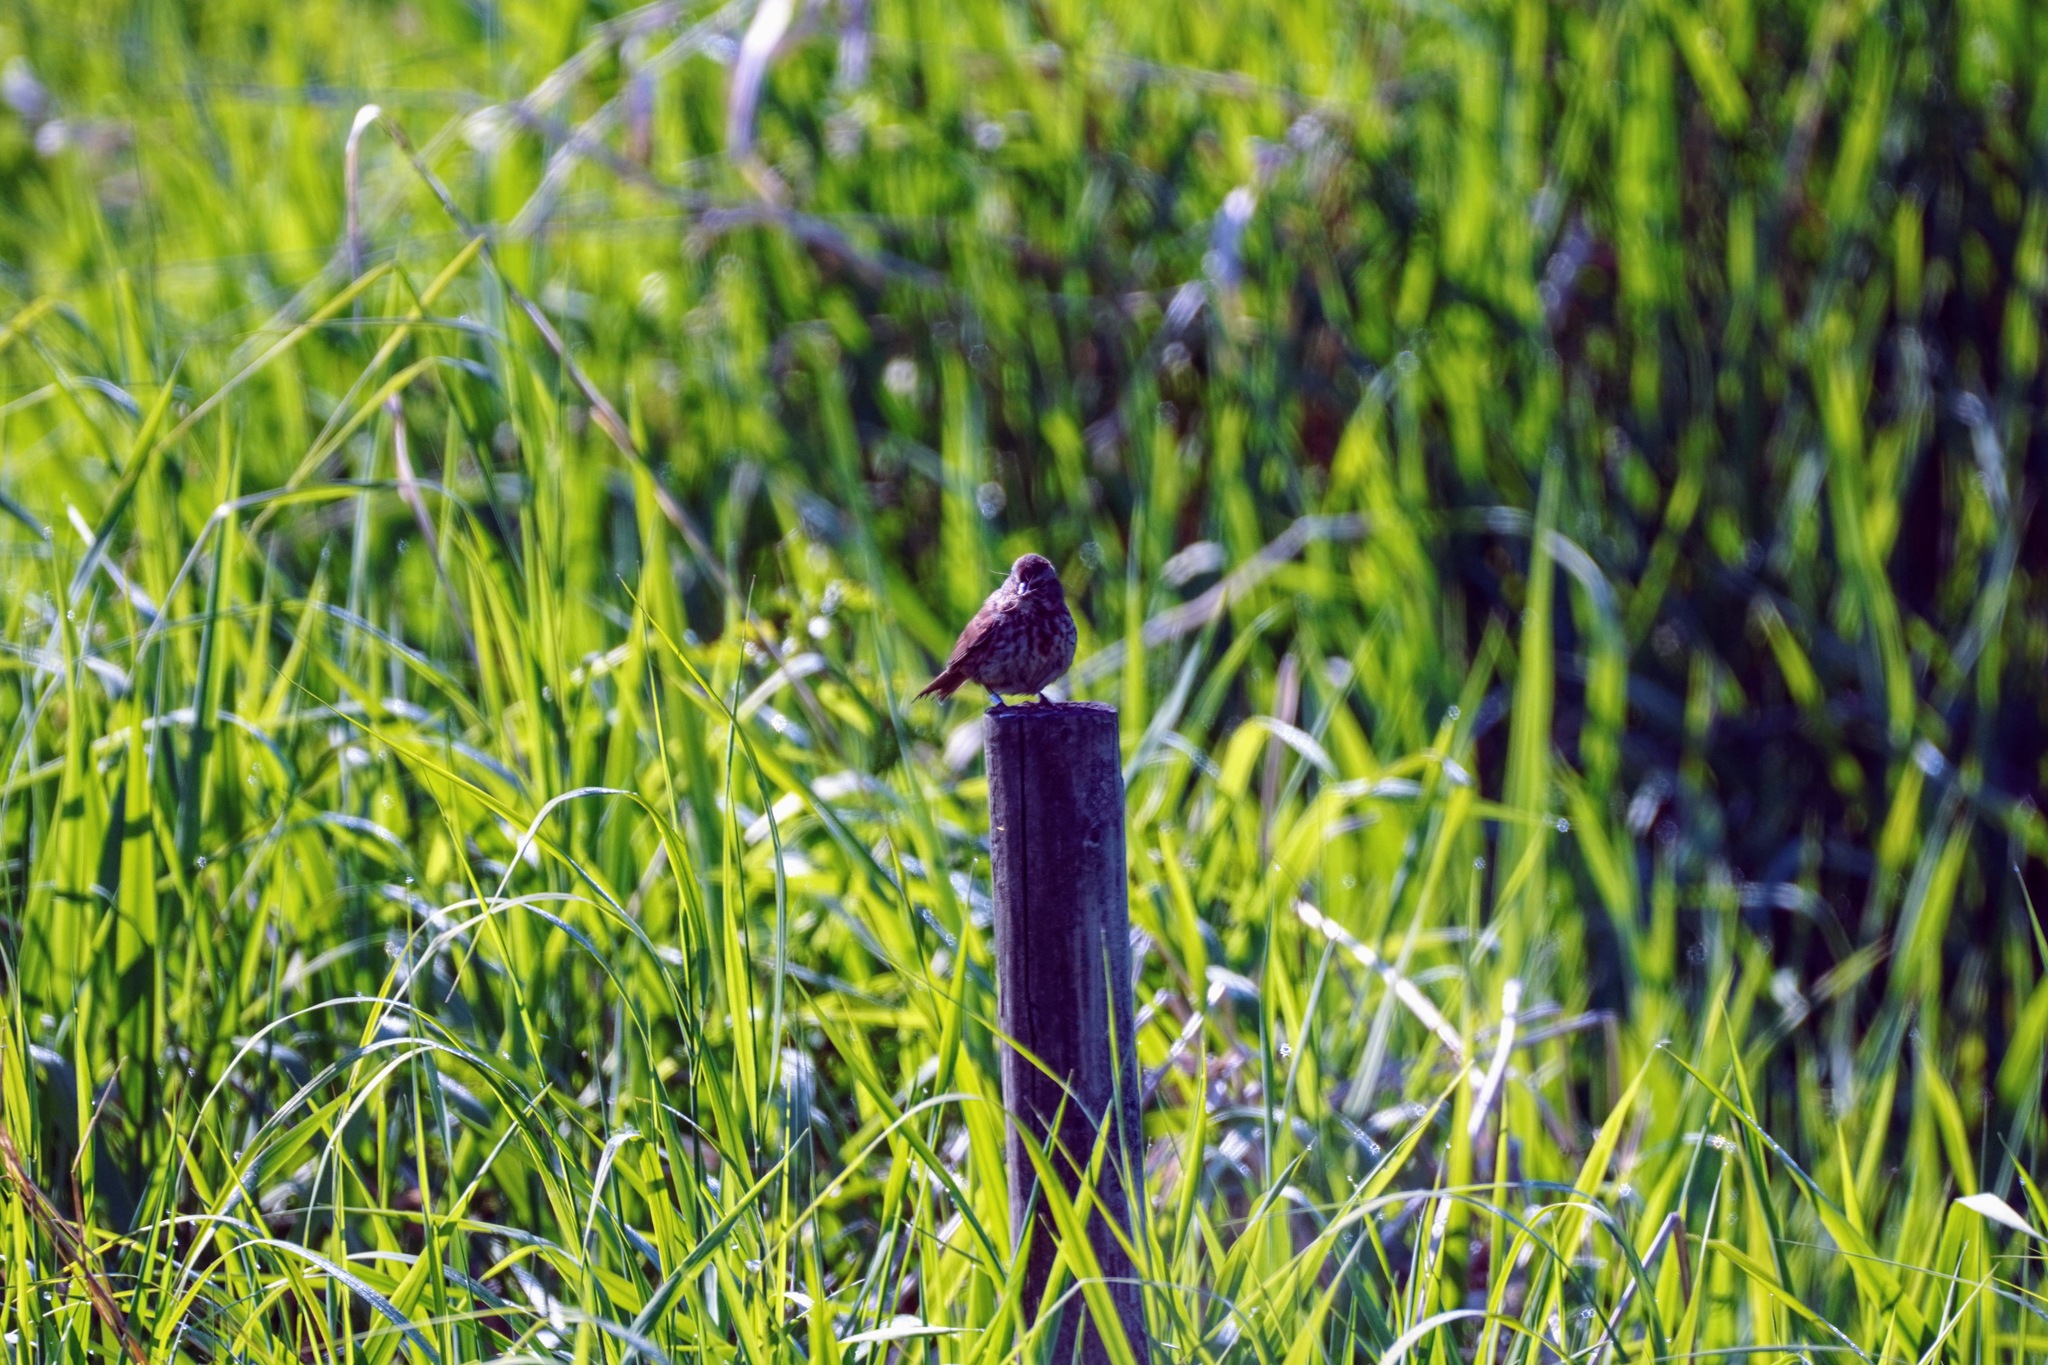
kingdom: Animalia
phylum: Chordata
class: Aves
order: Passeriformes
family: Passerellidae
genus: Melospiza
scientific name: Melospiza melodia
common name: Song sparrow
